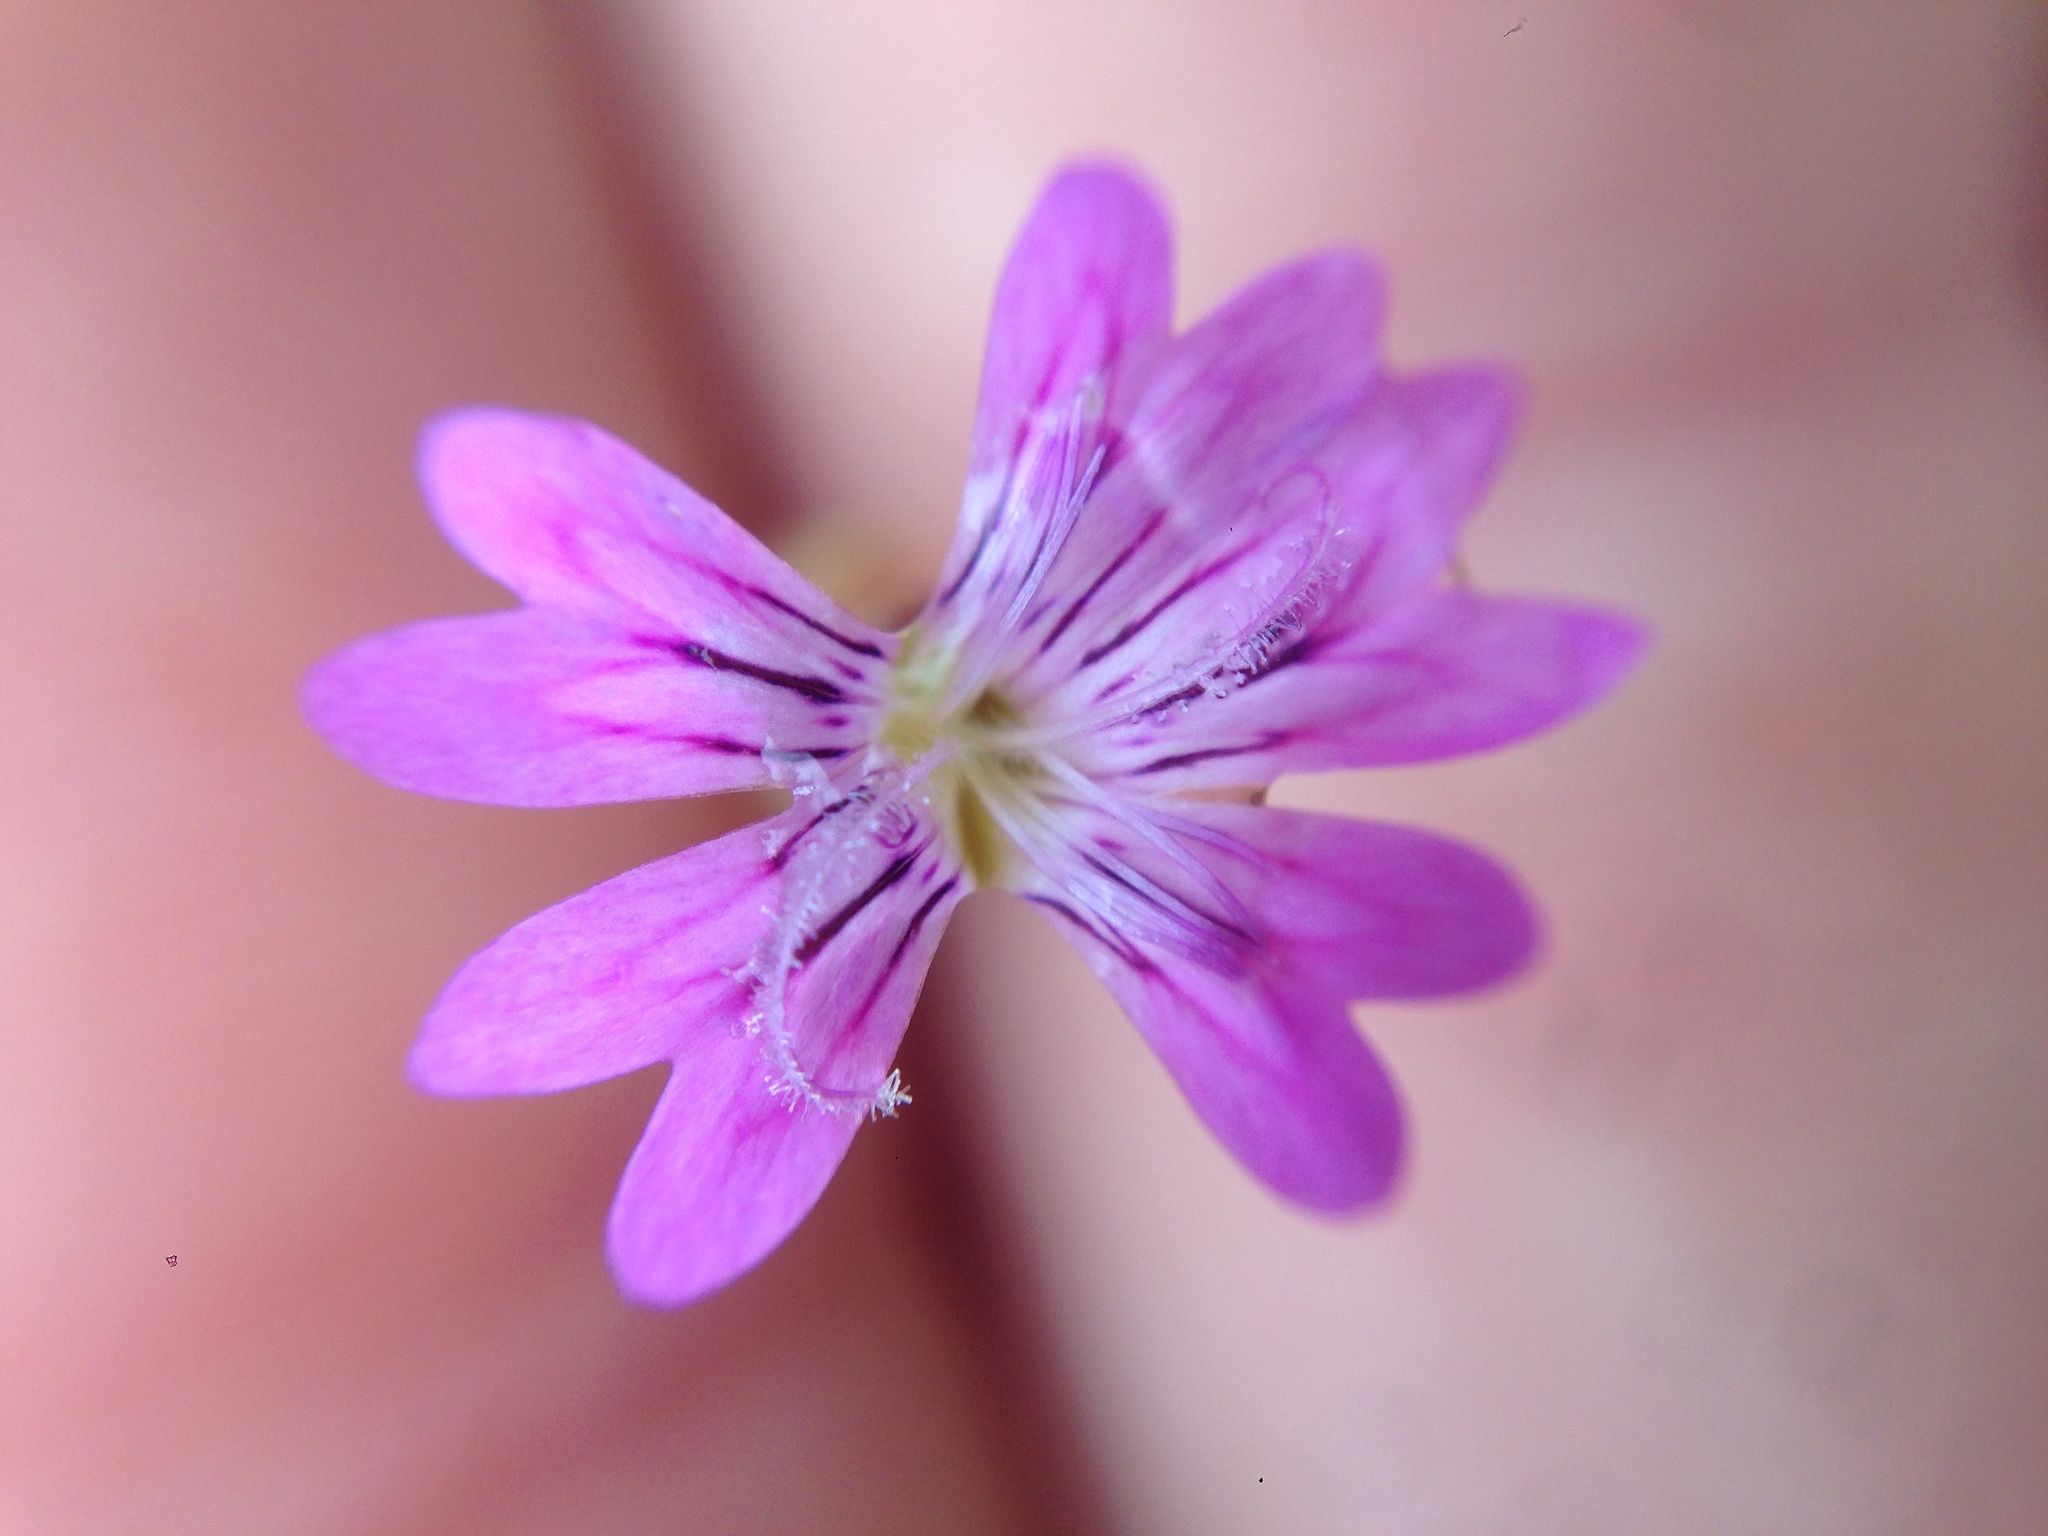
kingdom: Plantae
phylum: Tracheophyta
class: Magnoliopsida
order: Caryophyllales
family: Caryophyllaceae
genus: Petrorhagia
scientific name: Petrorhagia dubia
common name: Hairypink
